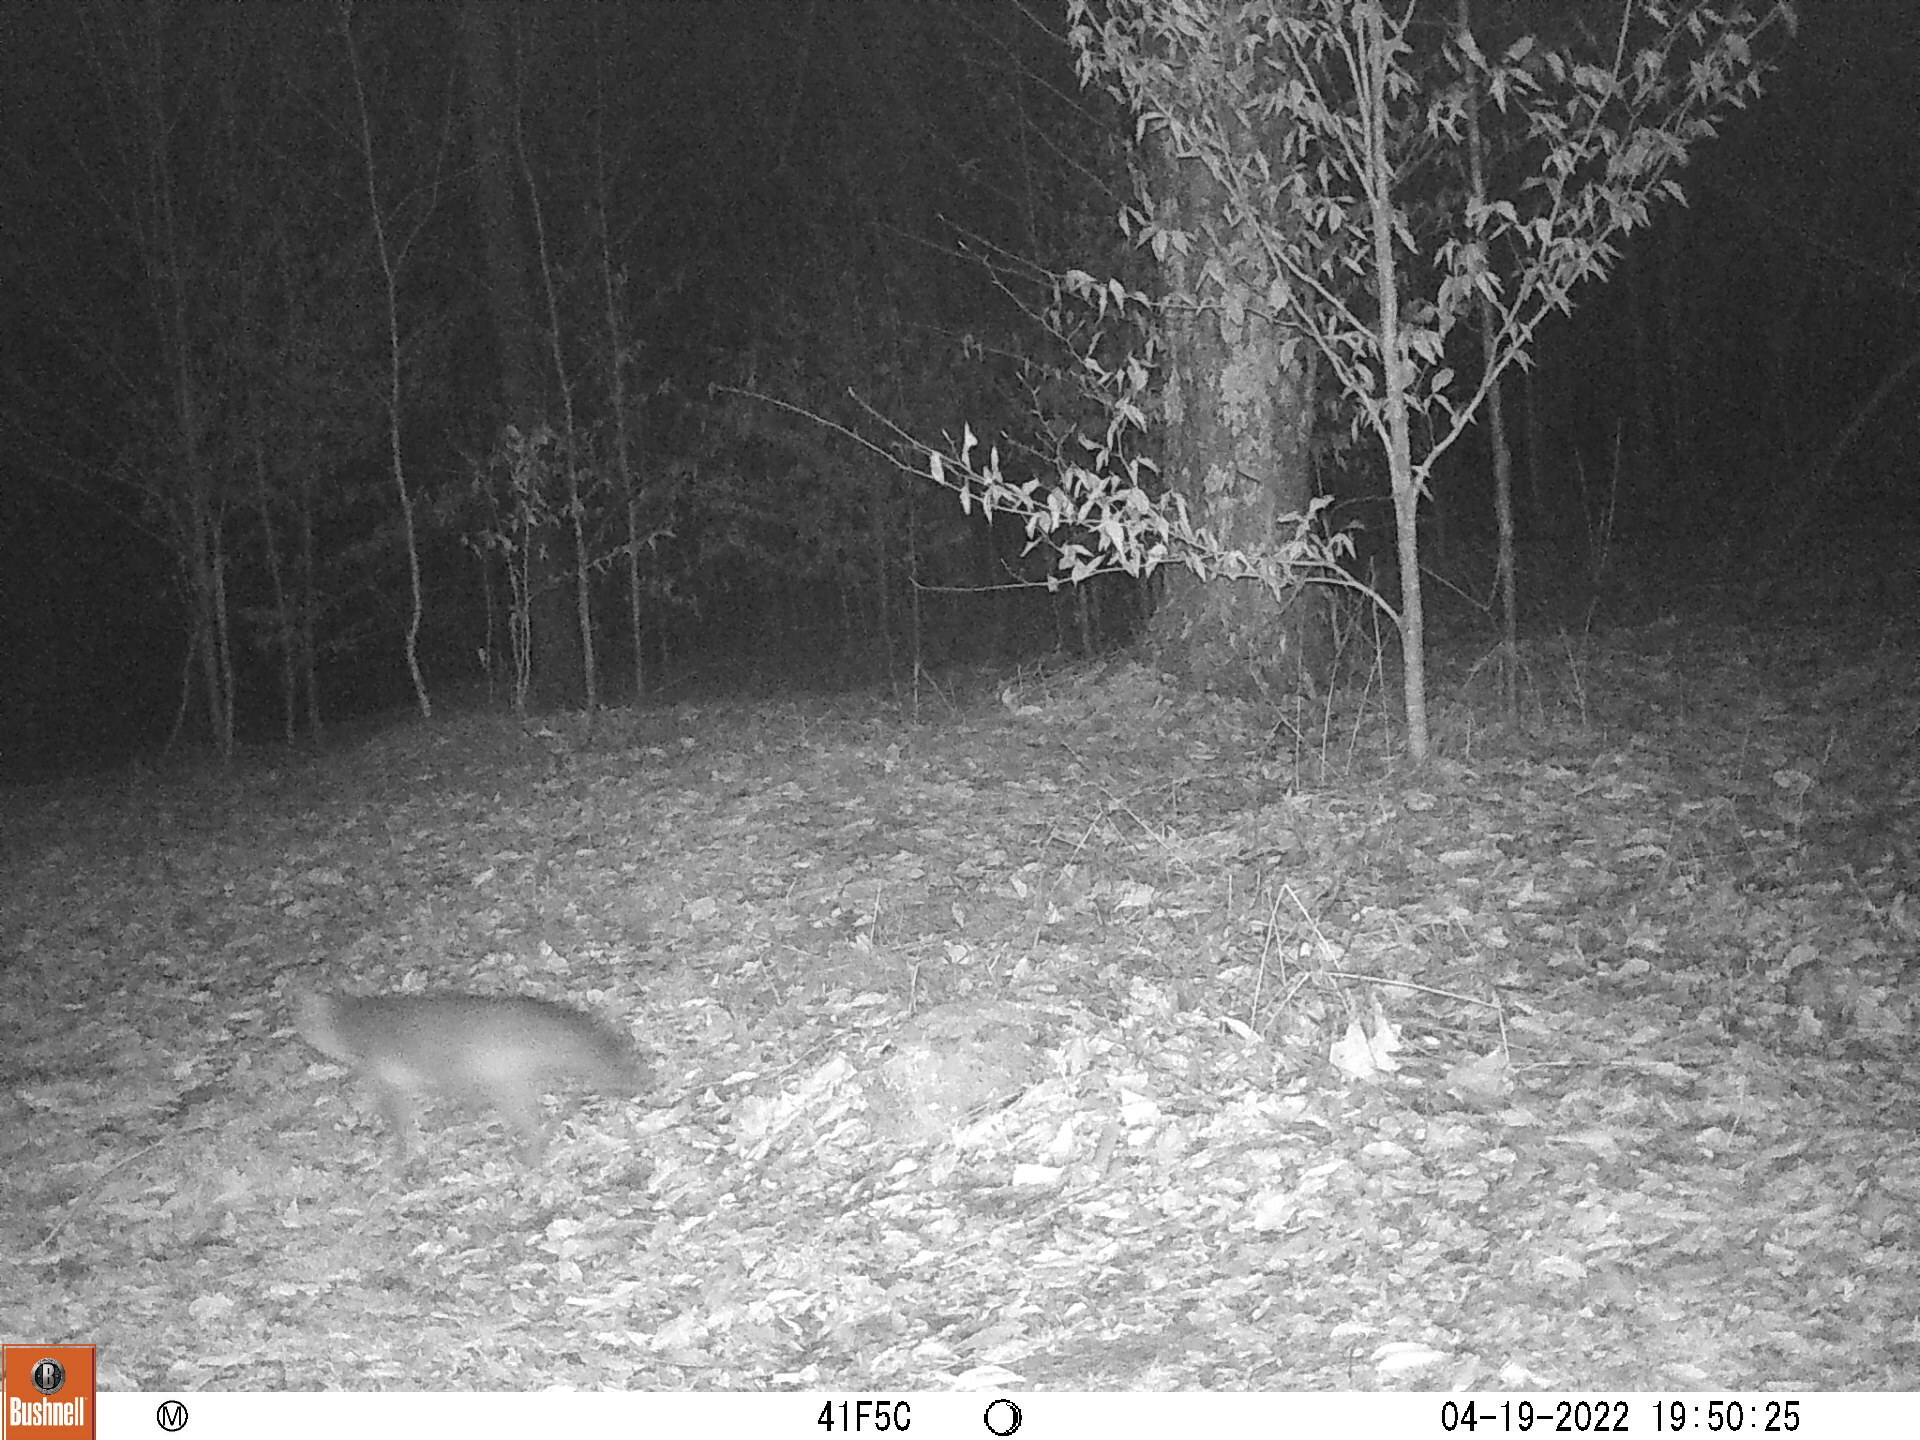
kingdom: Animalia
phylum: Chordata
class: Mammalia
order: Carnivora
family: Canidae
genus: Urocyon
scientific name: Urocyon cinereoargenteus
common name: Gray fox
